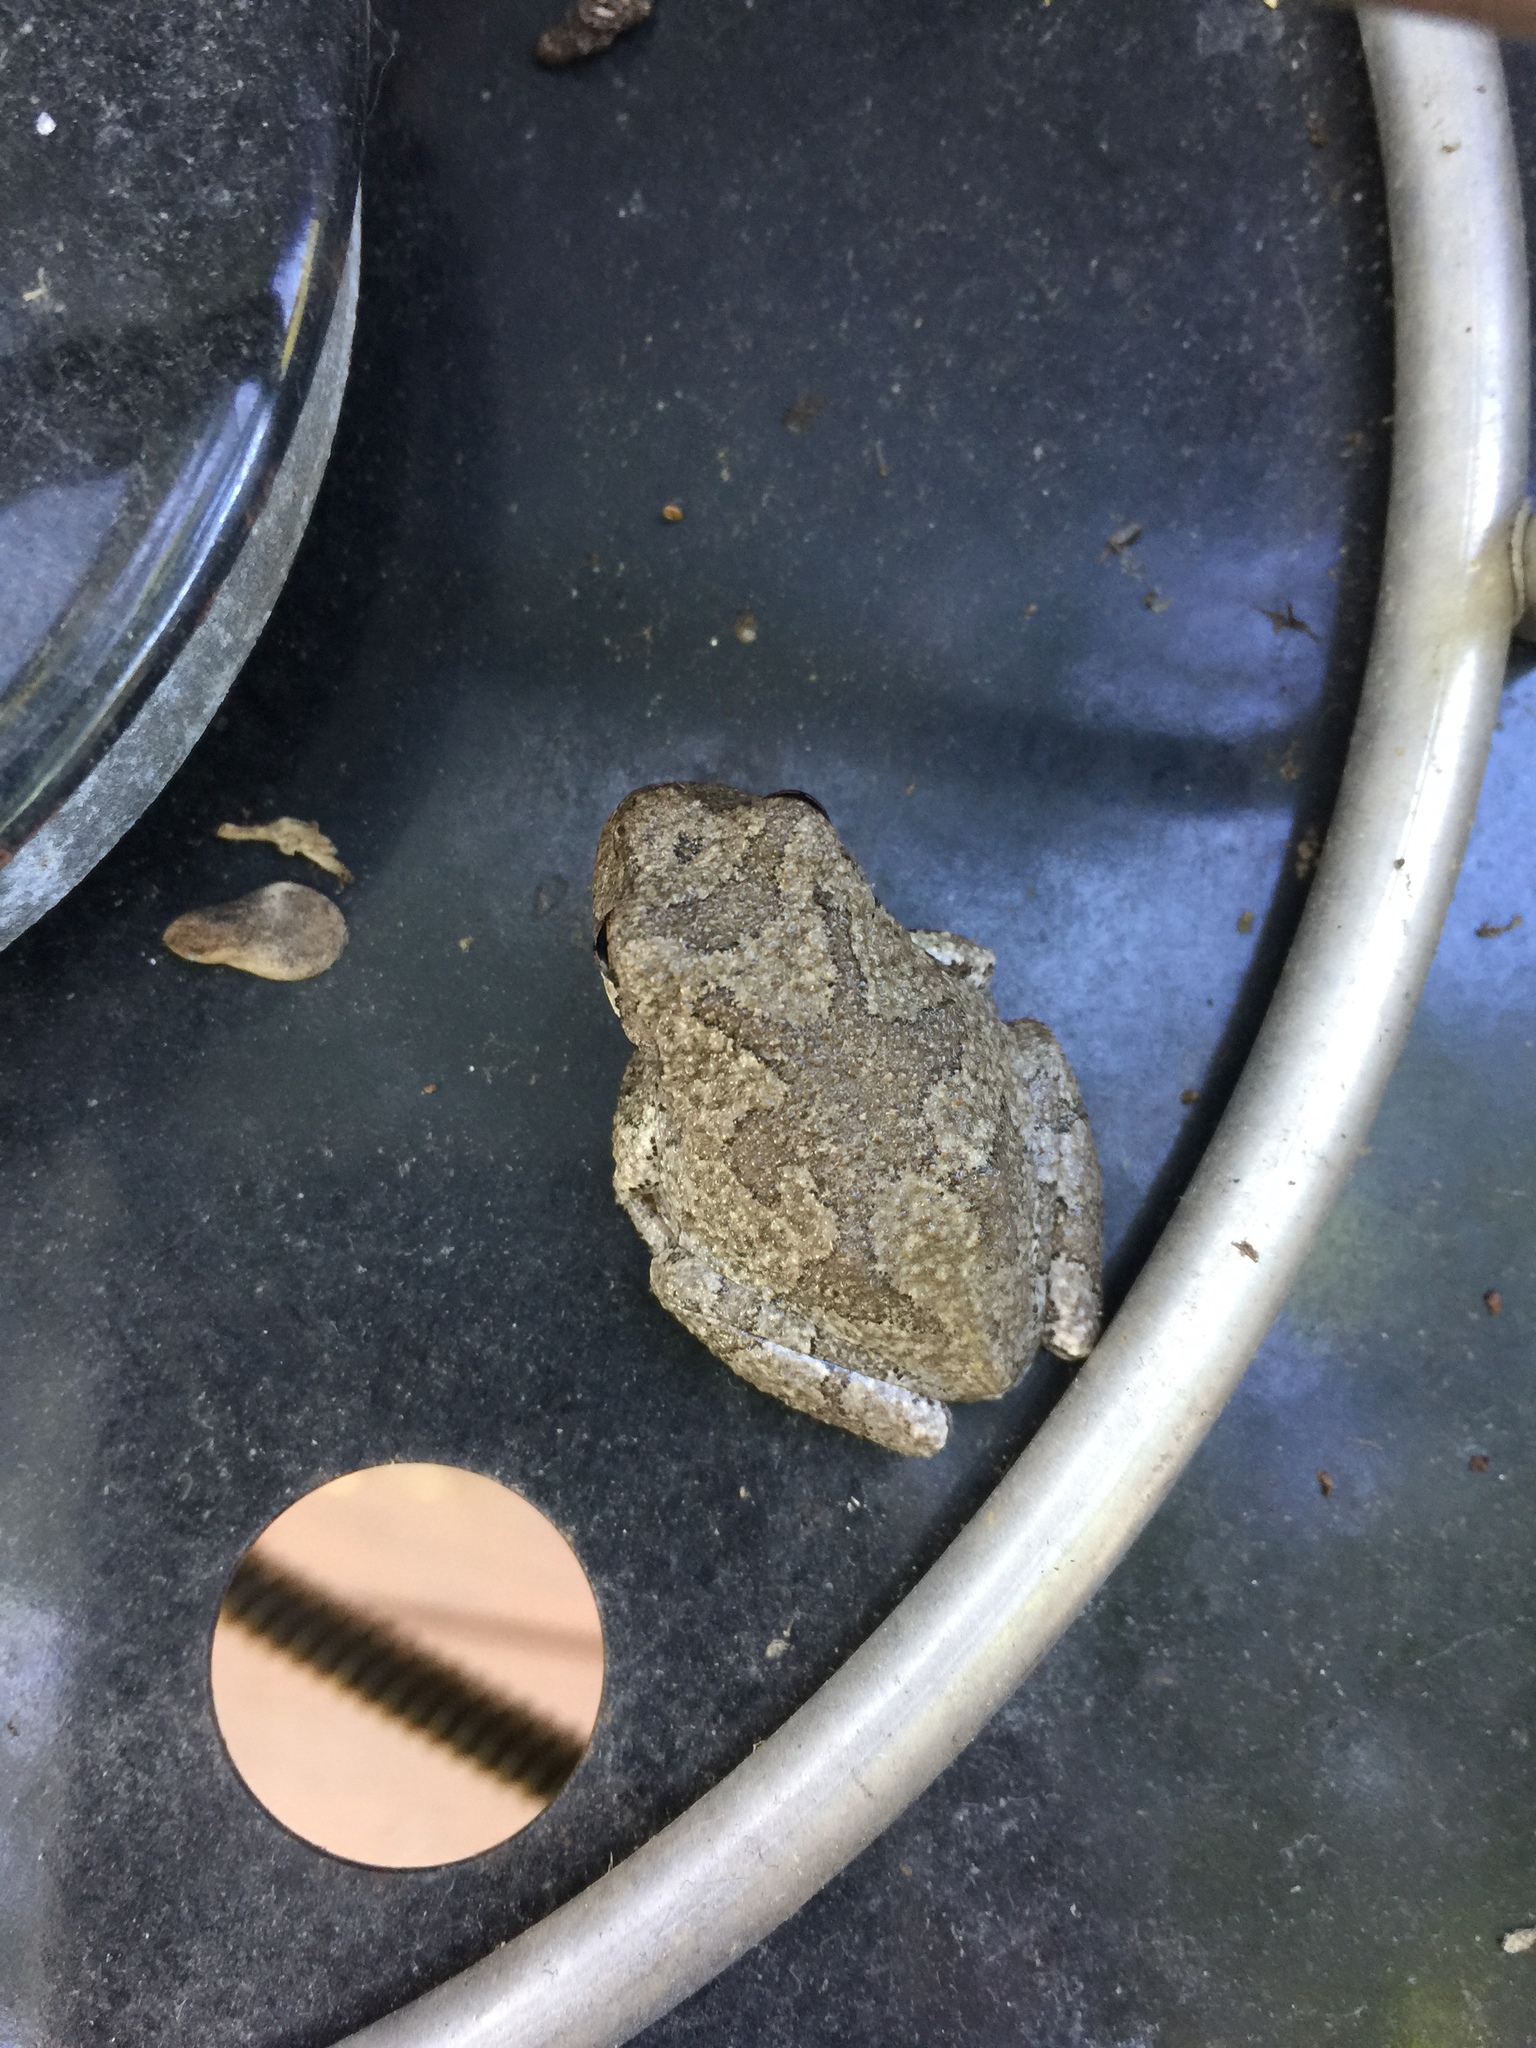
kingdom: Animalia
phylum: Chordata
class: Amphibia
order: Anura
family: Hylidae
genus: Dryophytes
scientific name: Dryophytes versicolor
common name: Gray treefrog
